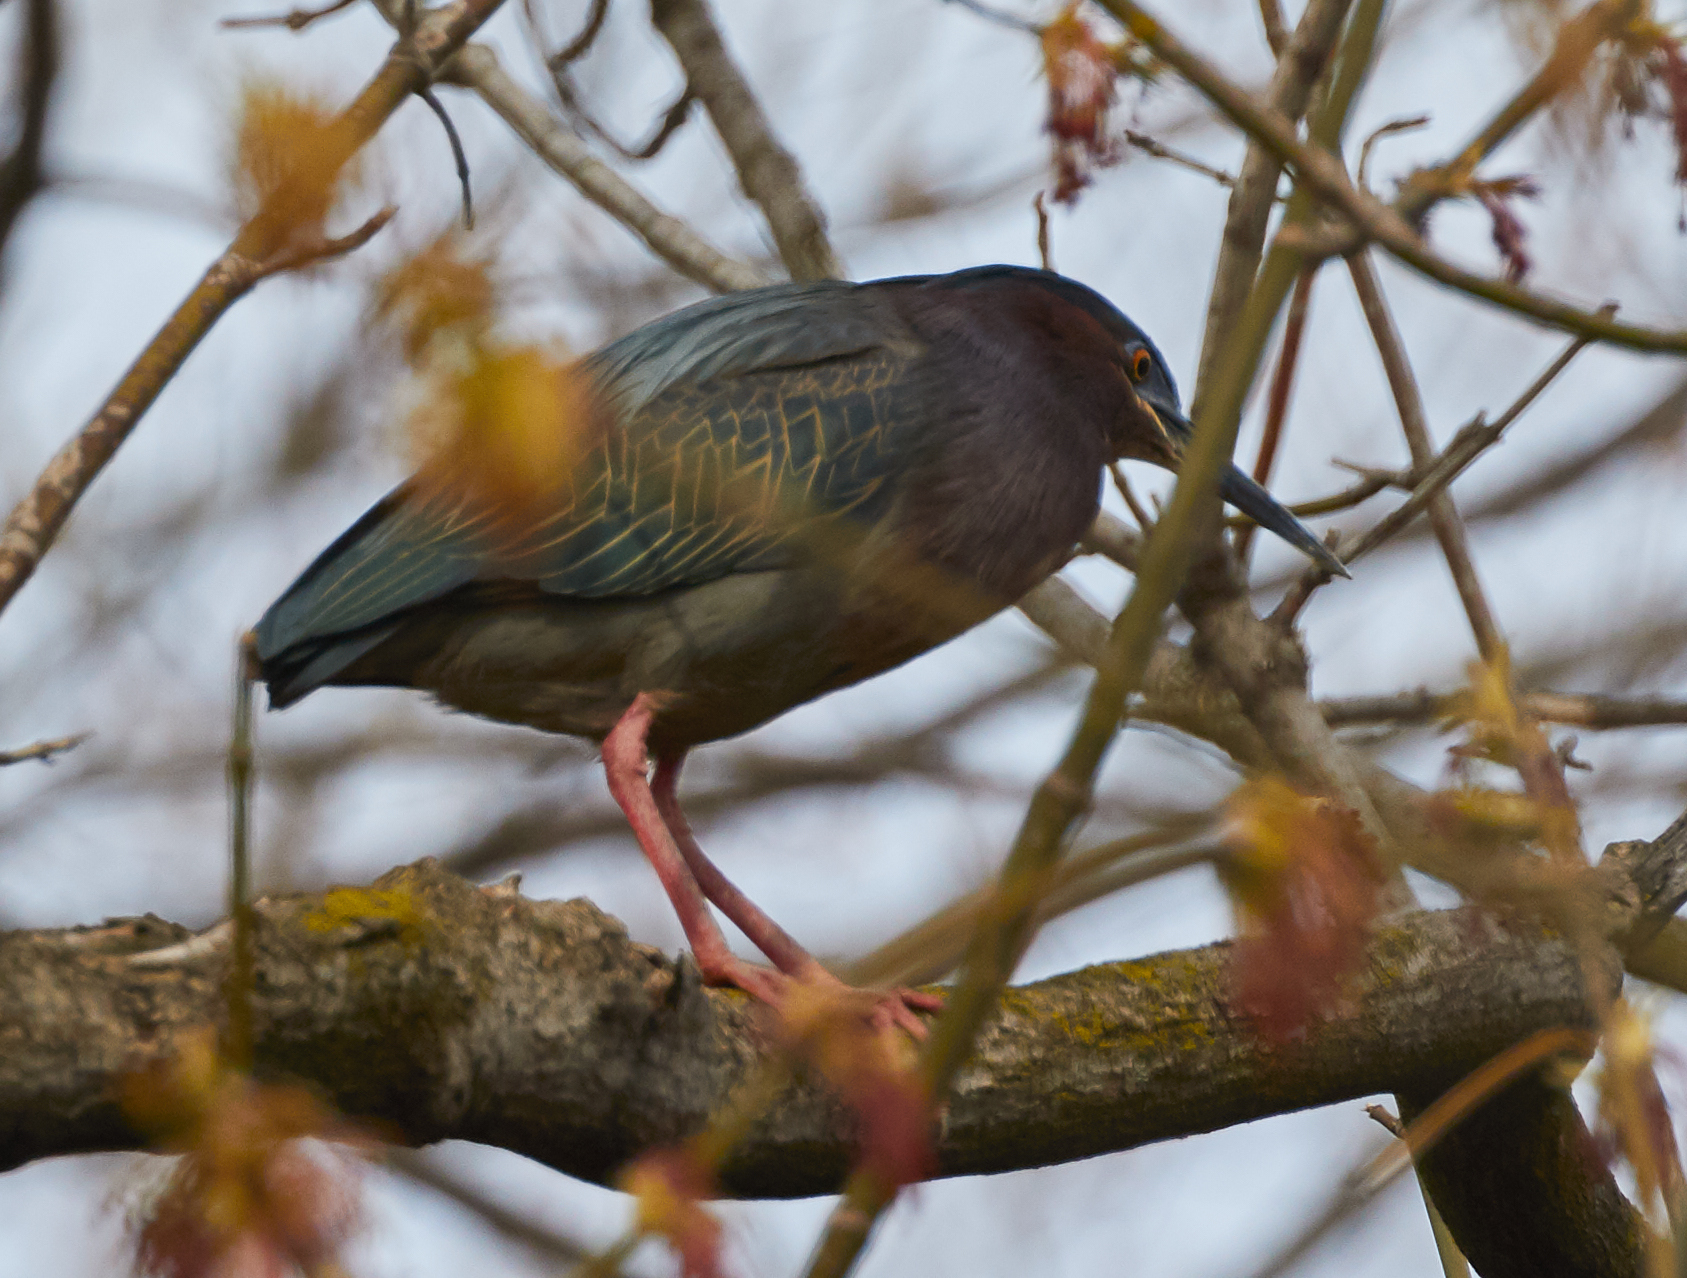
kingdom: Animalia
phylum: Chordata
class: Aves
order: Pelecaniformes
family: Ardeidae
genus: Butorides
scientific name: Butorides virescens
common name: Green heron
